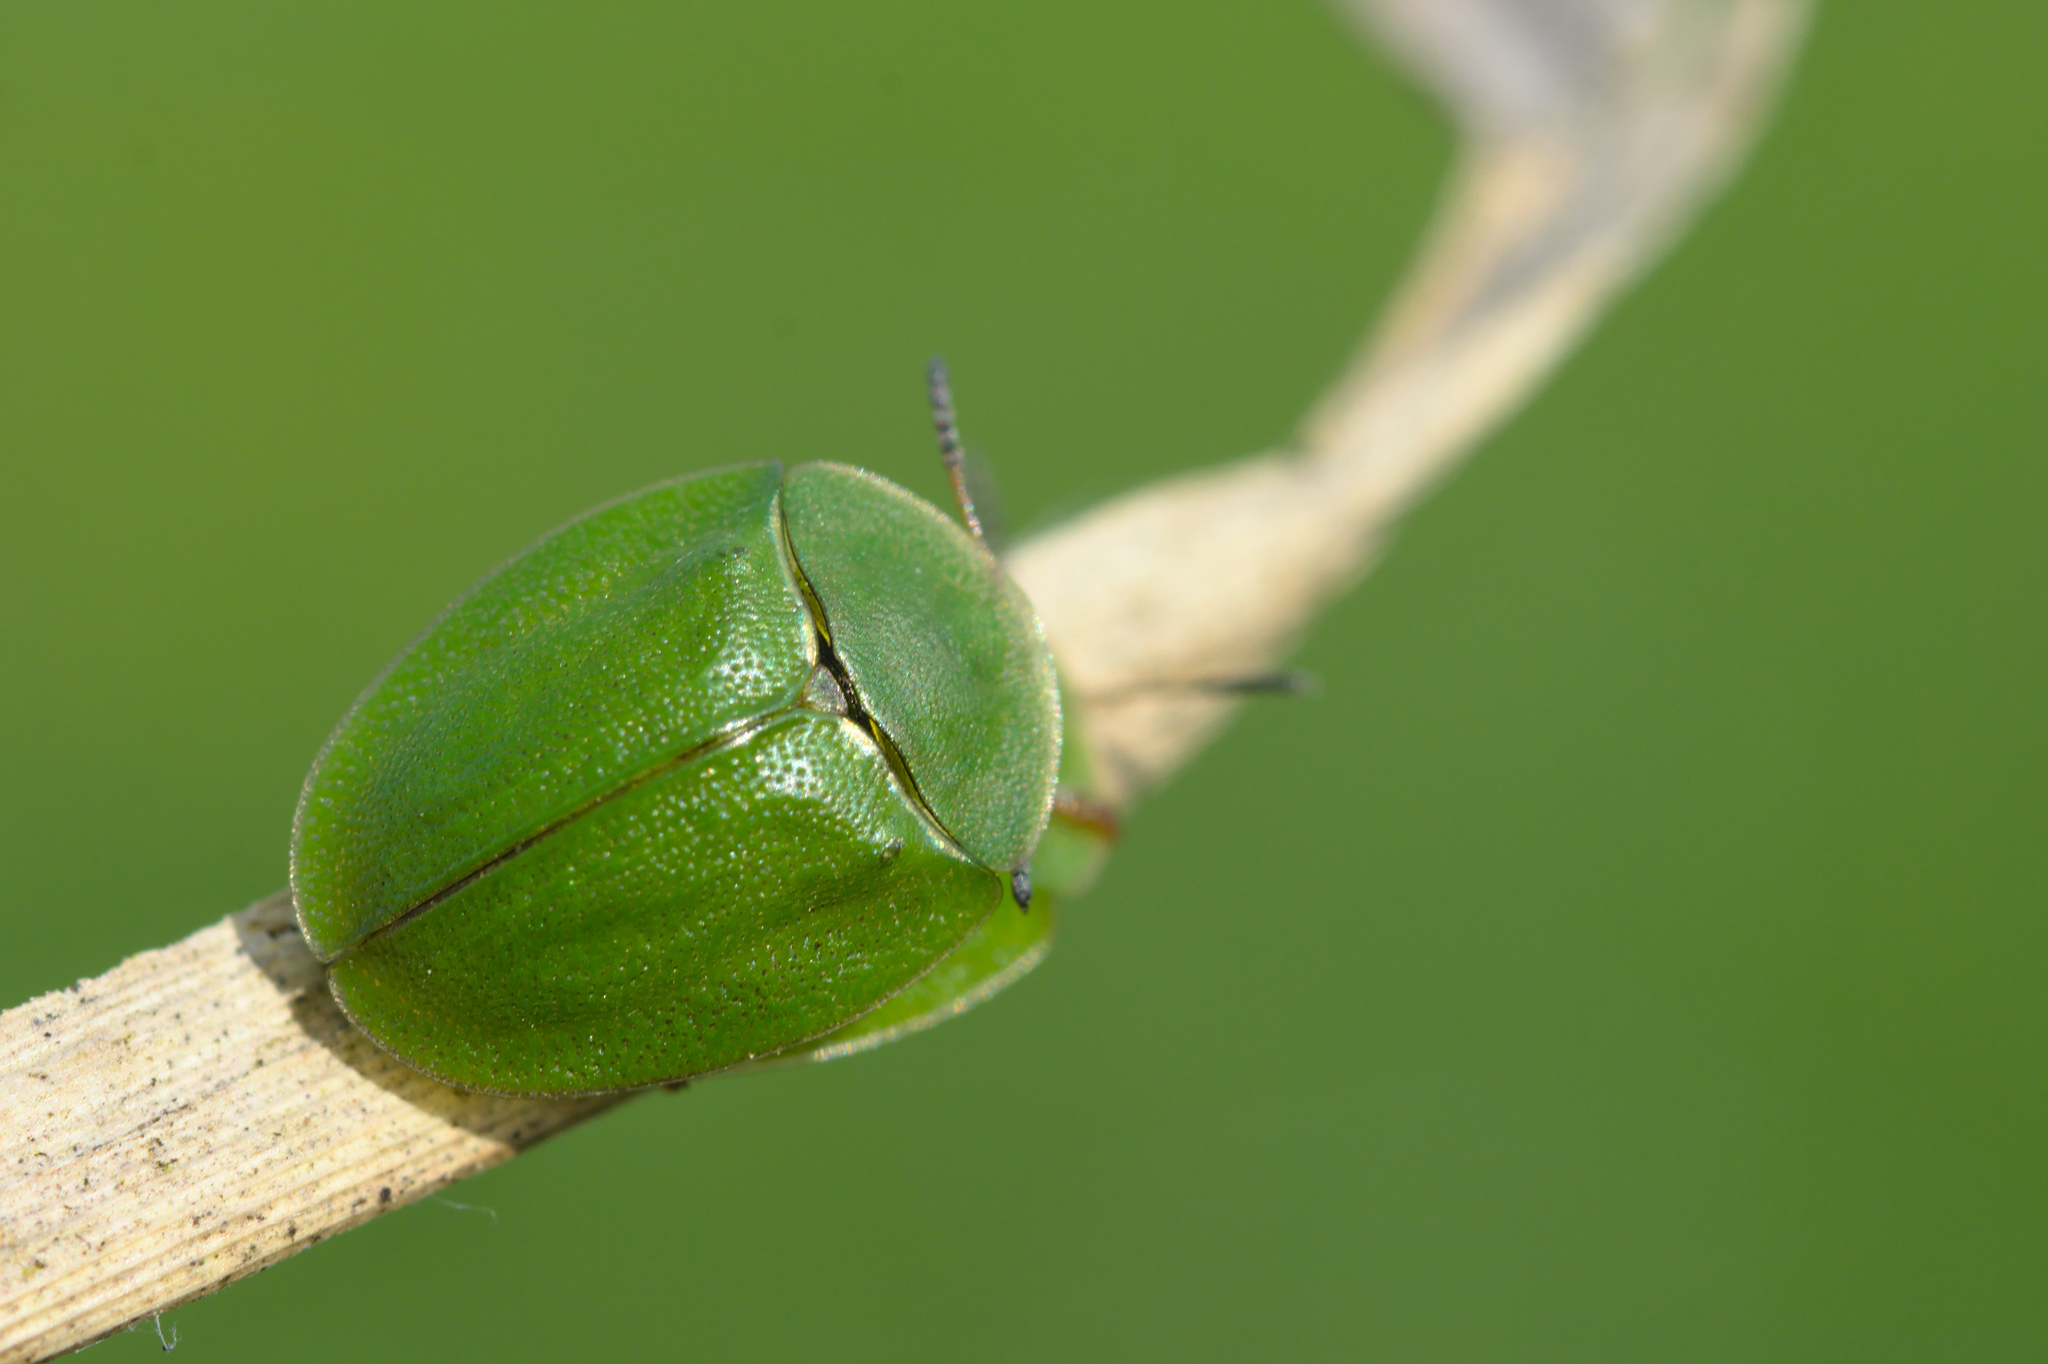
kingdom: Animalia
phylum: Arthropoda
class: Insecta
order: Coleoptera
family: Chrysomelidae
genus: Cassida
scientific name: Cassida viridis
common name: Green tortoise beetle
